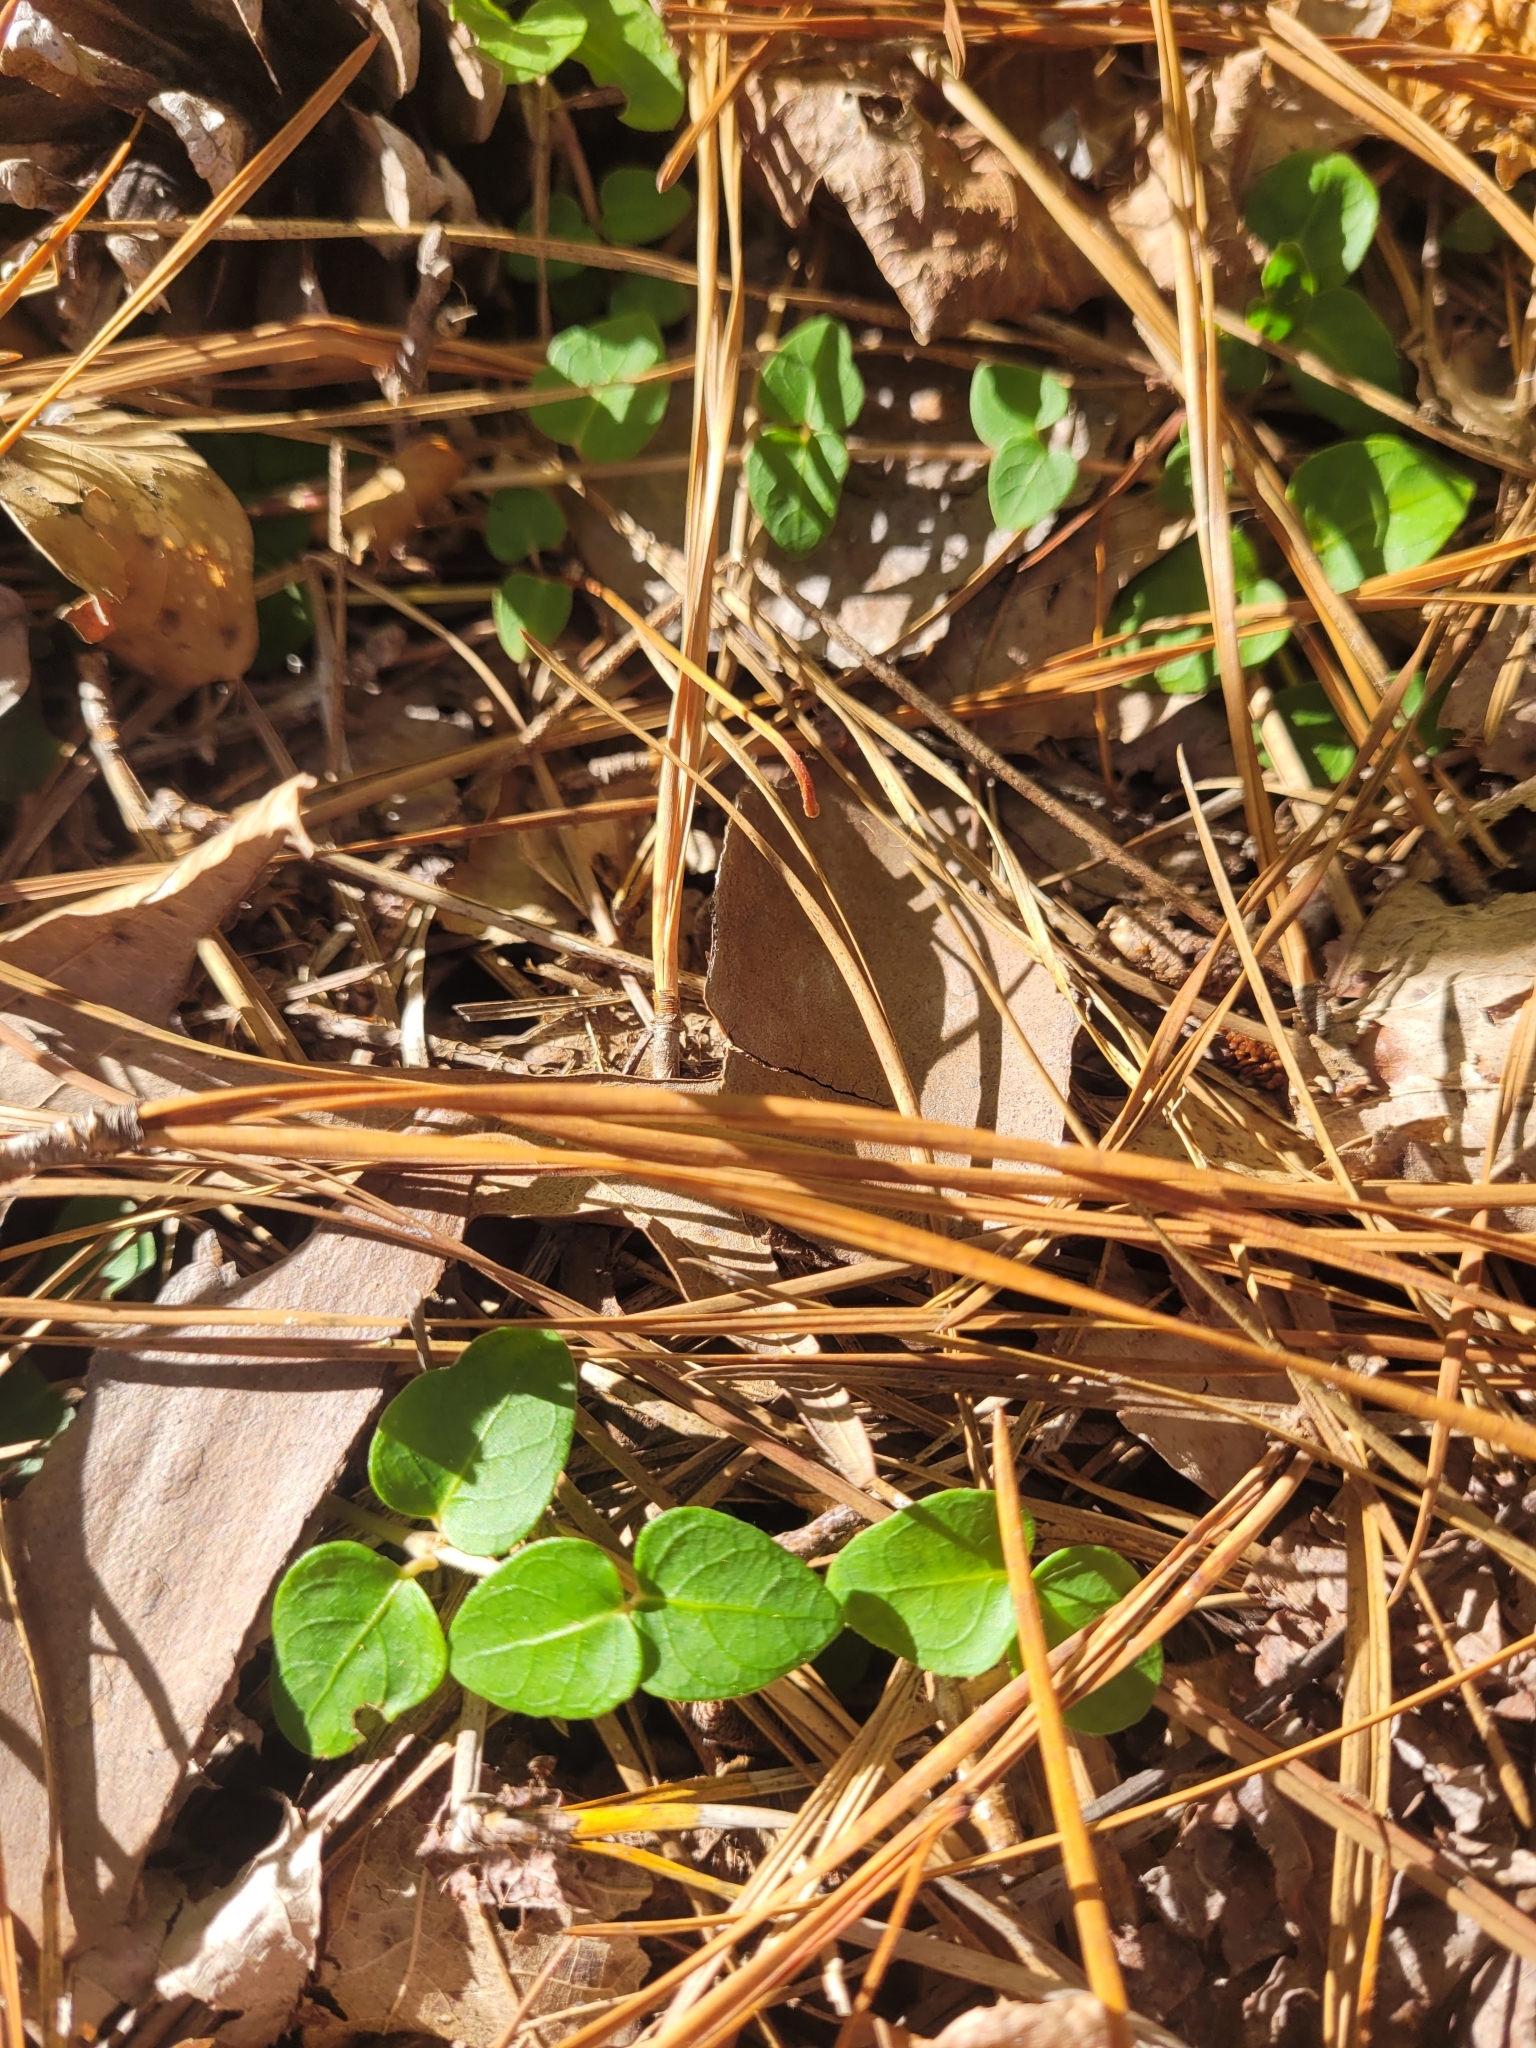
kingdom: Plantae
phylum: Tracheophyta
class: Magnoliopsida
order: Gentianales
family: Rubiaceae
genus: Mitchella
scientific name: Mitchella repens
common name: Partridge-berry
